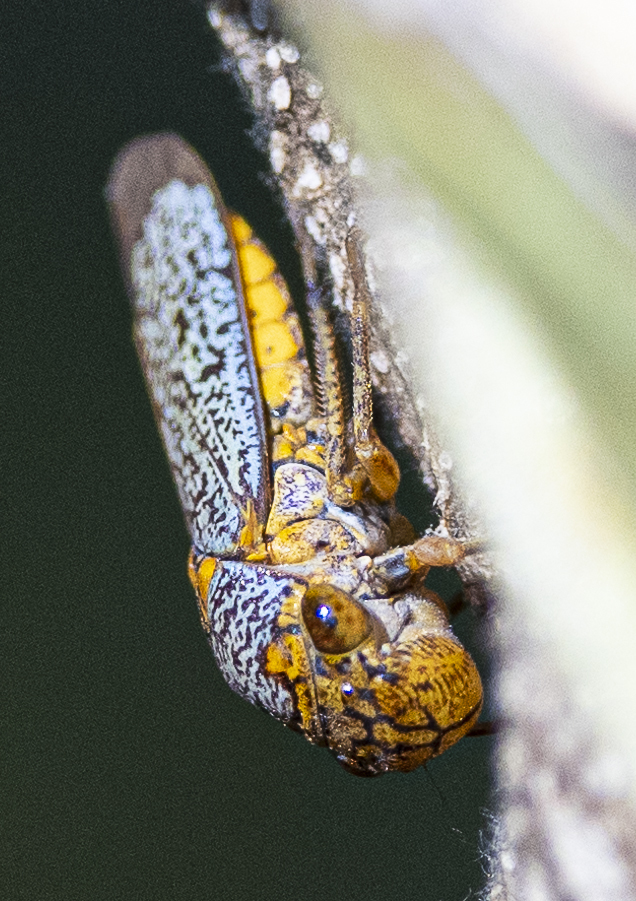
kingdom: Animalia
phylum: Arthropoda
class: Insecta
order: Hemiptera
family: Cicadellidae
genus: Oncometopia
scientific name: Oncometopia orbona
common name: Broad-headed sharpshooter
